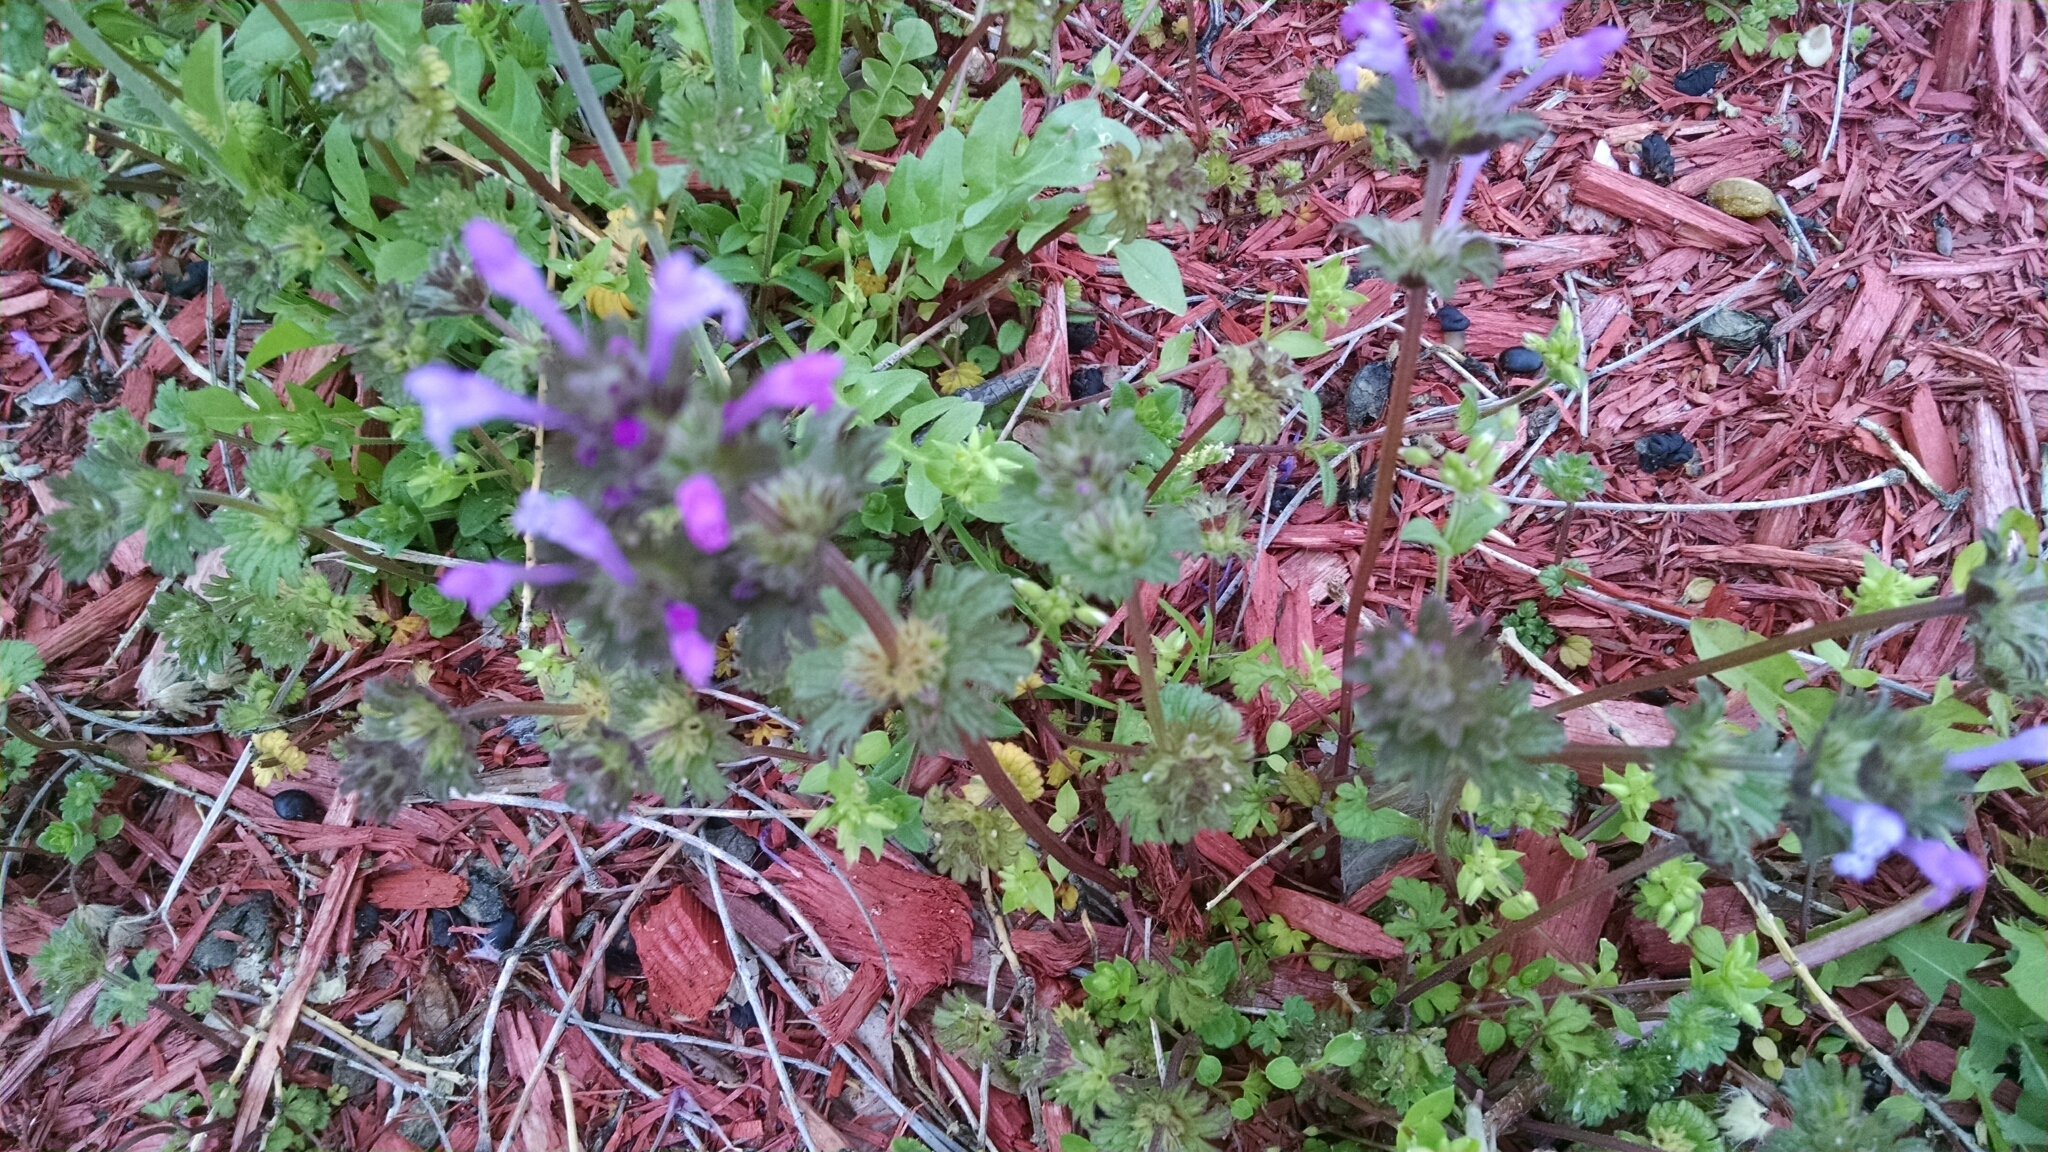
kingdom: Plantae
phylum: Tracheophyta
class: Magnoliopsida
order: Lamiales
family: Lamiaceae
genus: Lamium
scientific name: Lamium amplexicaule
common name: Henbit dead-nettle
